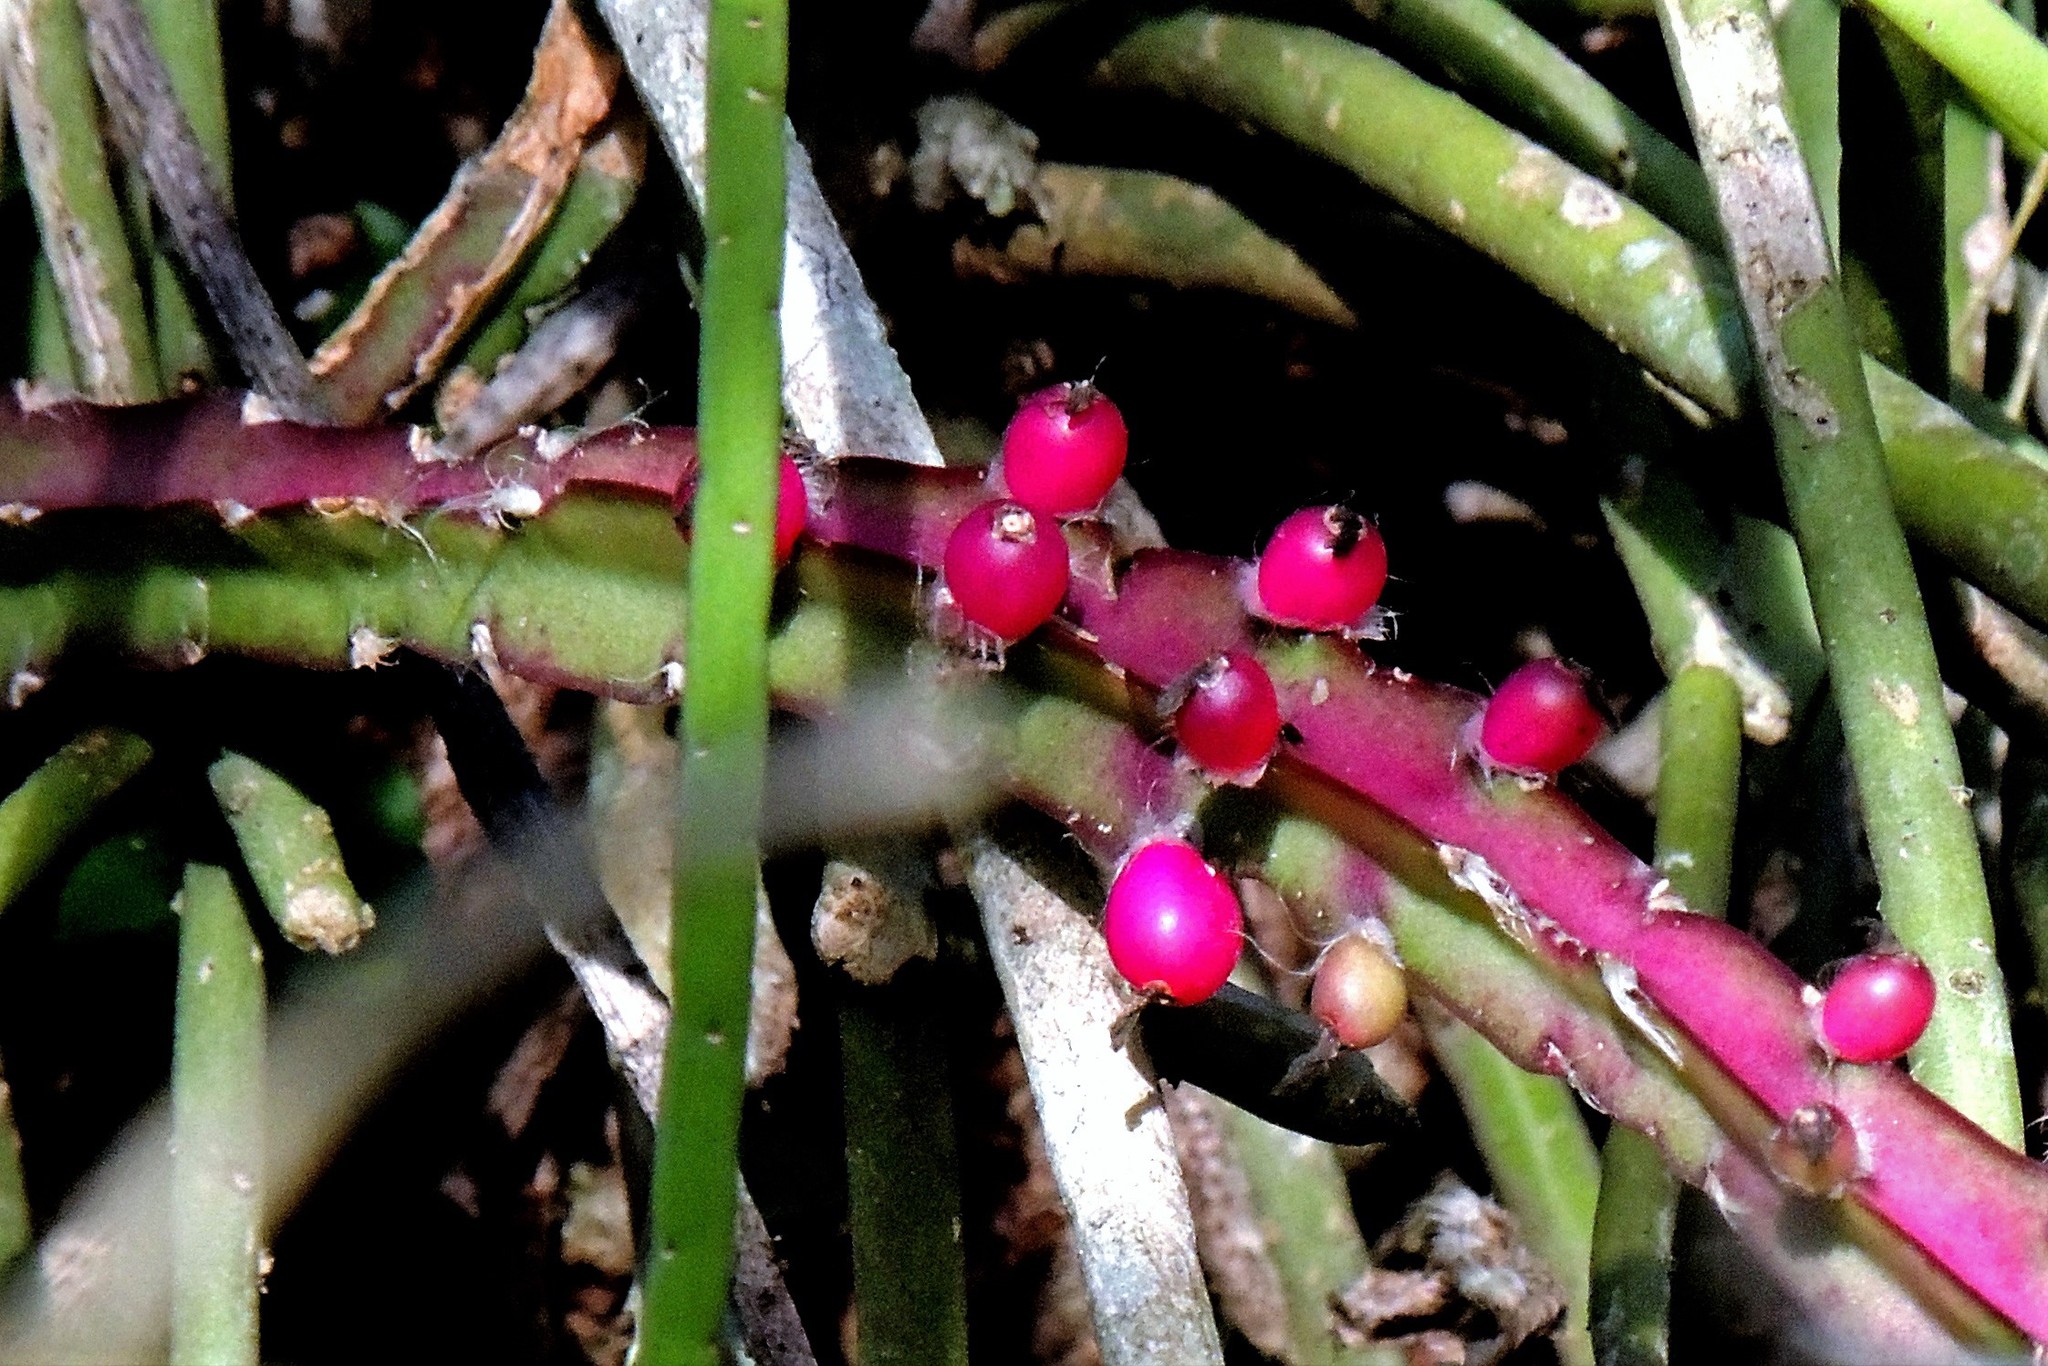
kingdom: Plantae
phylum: Tracheophyta
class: Magnoliopsida
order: Caryophyllales
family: Cactaceae
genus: Lepismium
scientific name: Lepismium cruciforme
